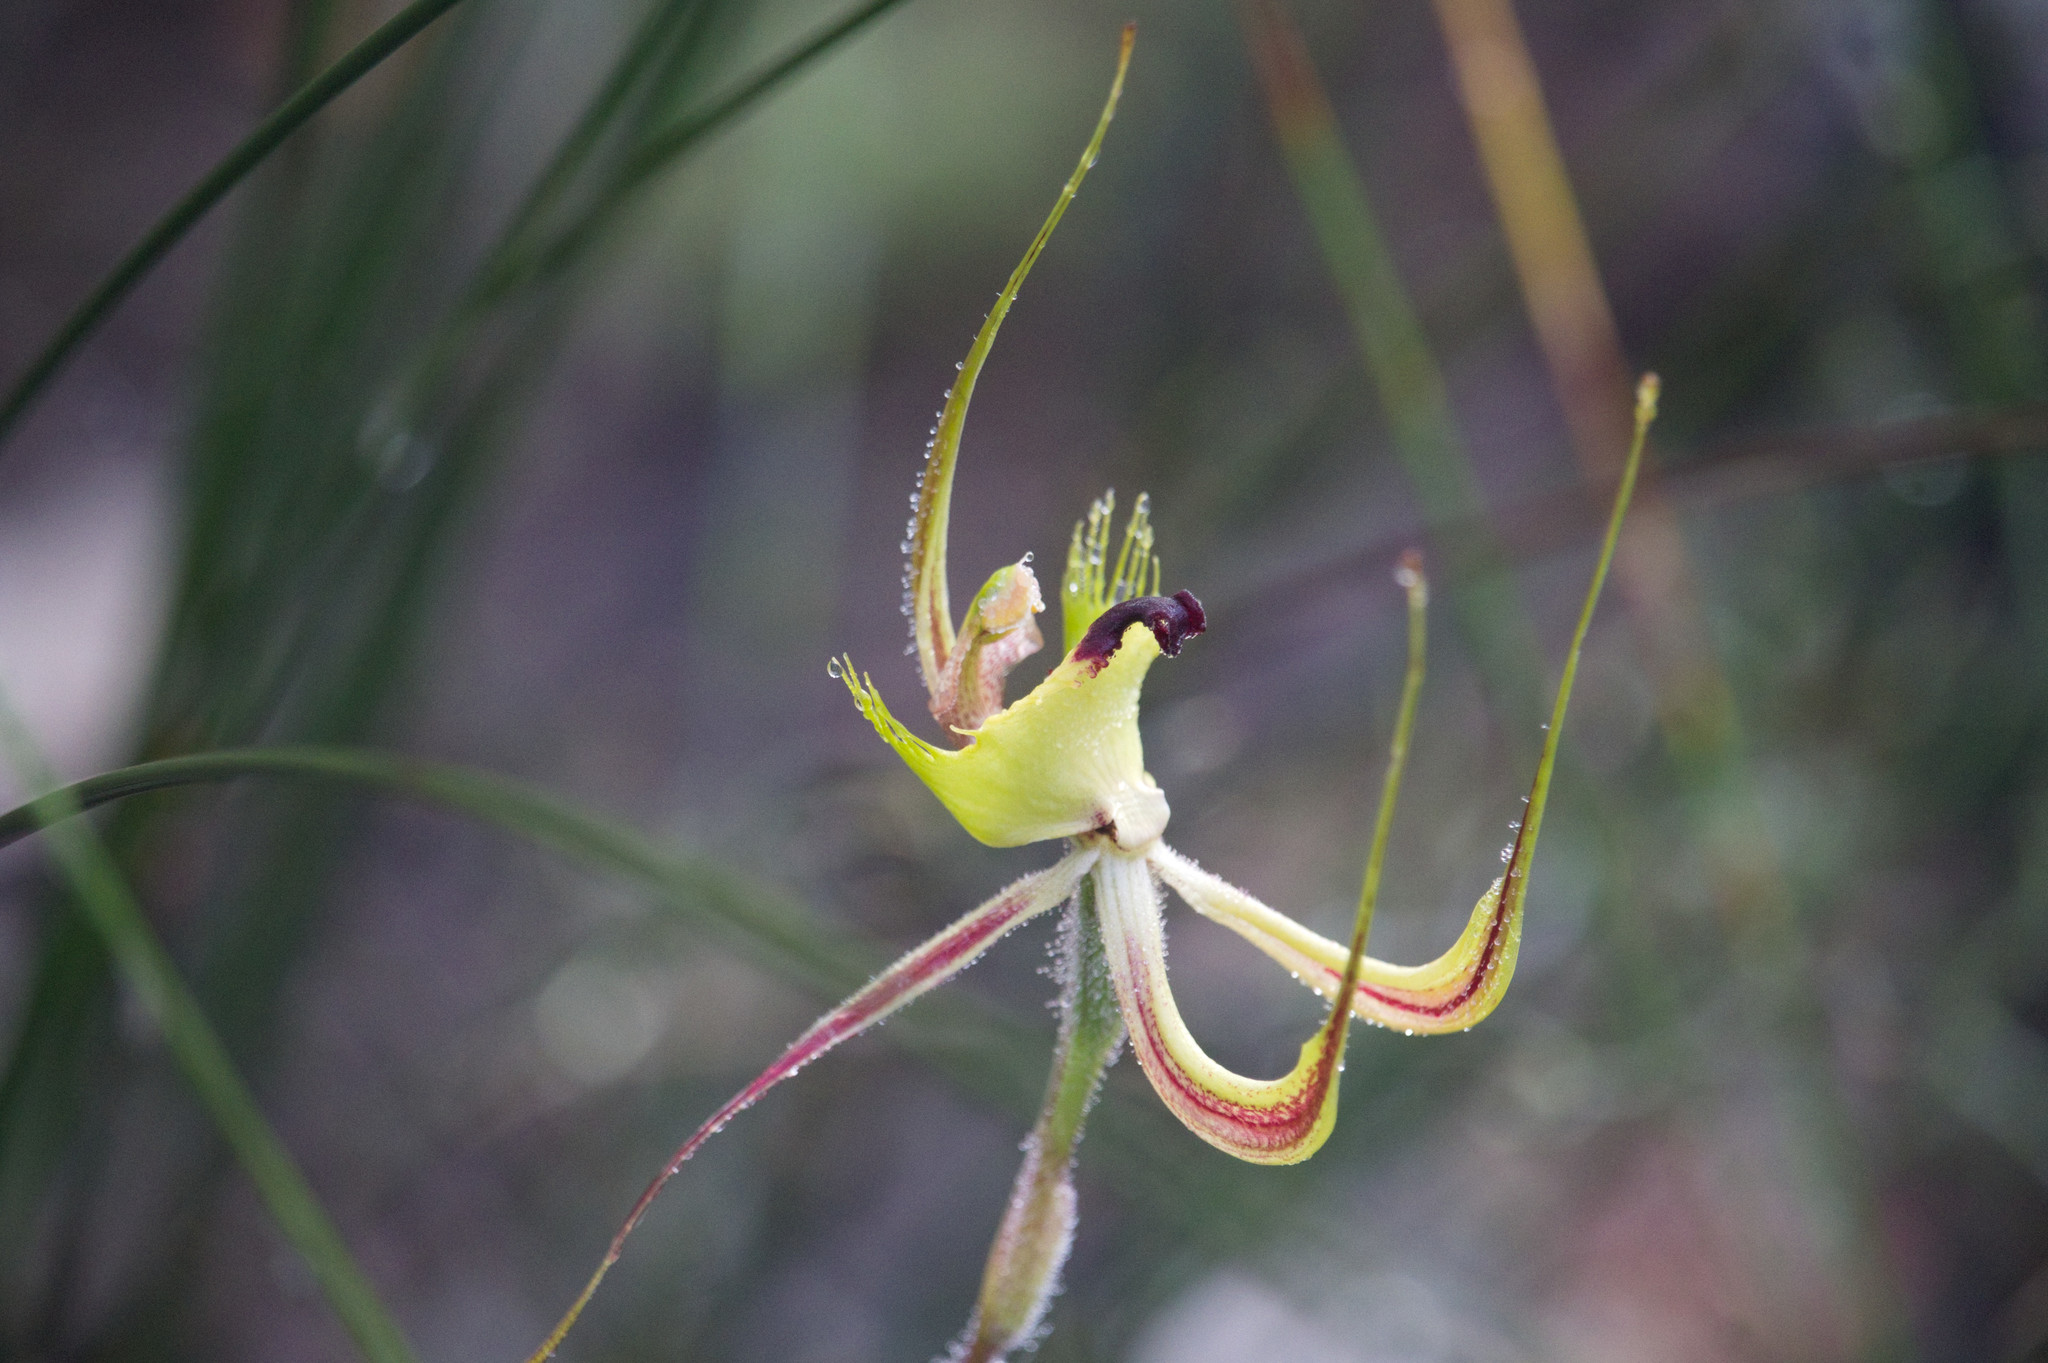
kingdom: Plantae
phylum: Tracheophyta
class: Liliopsida
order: Asparagales
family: Orchidaceae
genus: Caladenia
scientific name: Caladenia falcata
